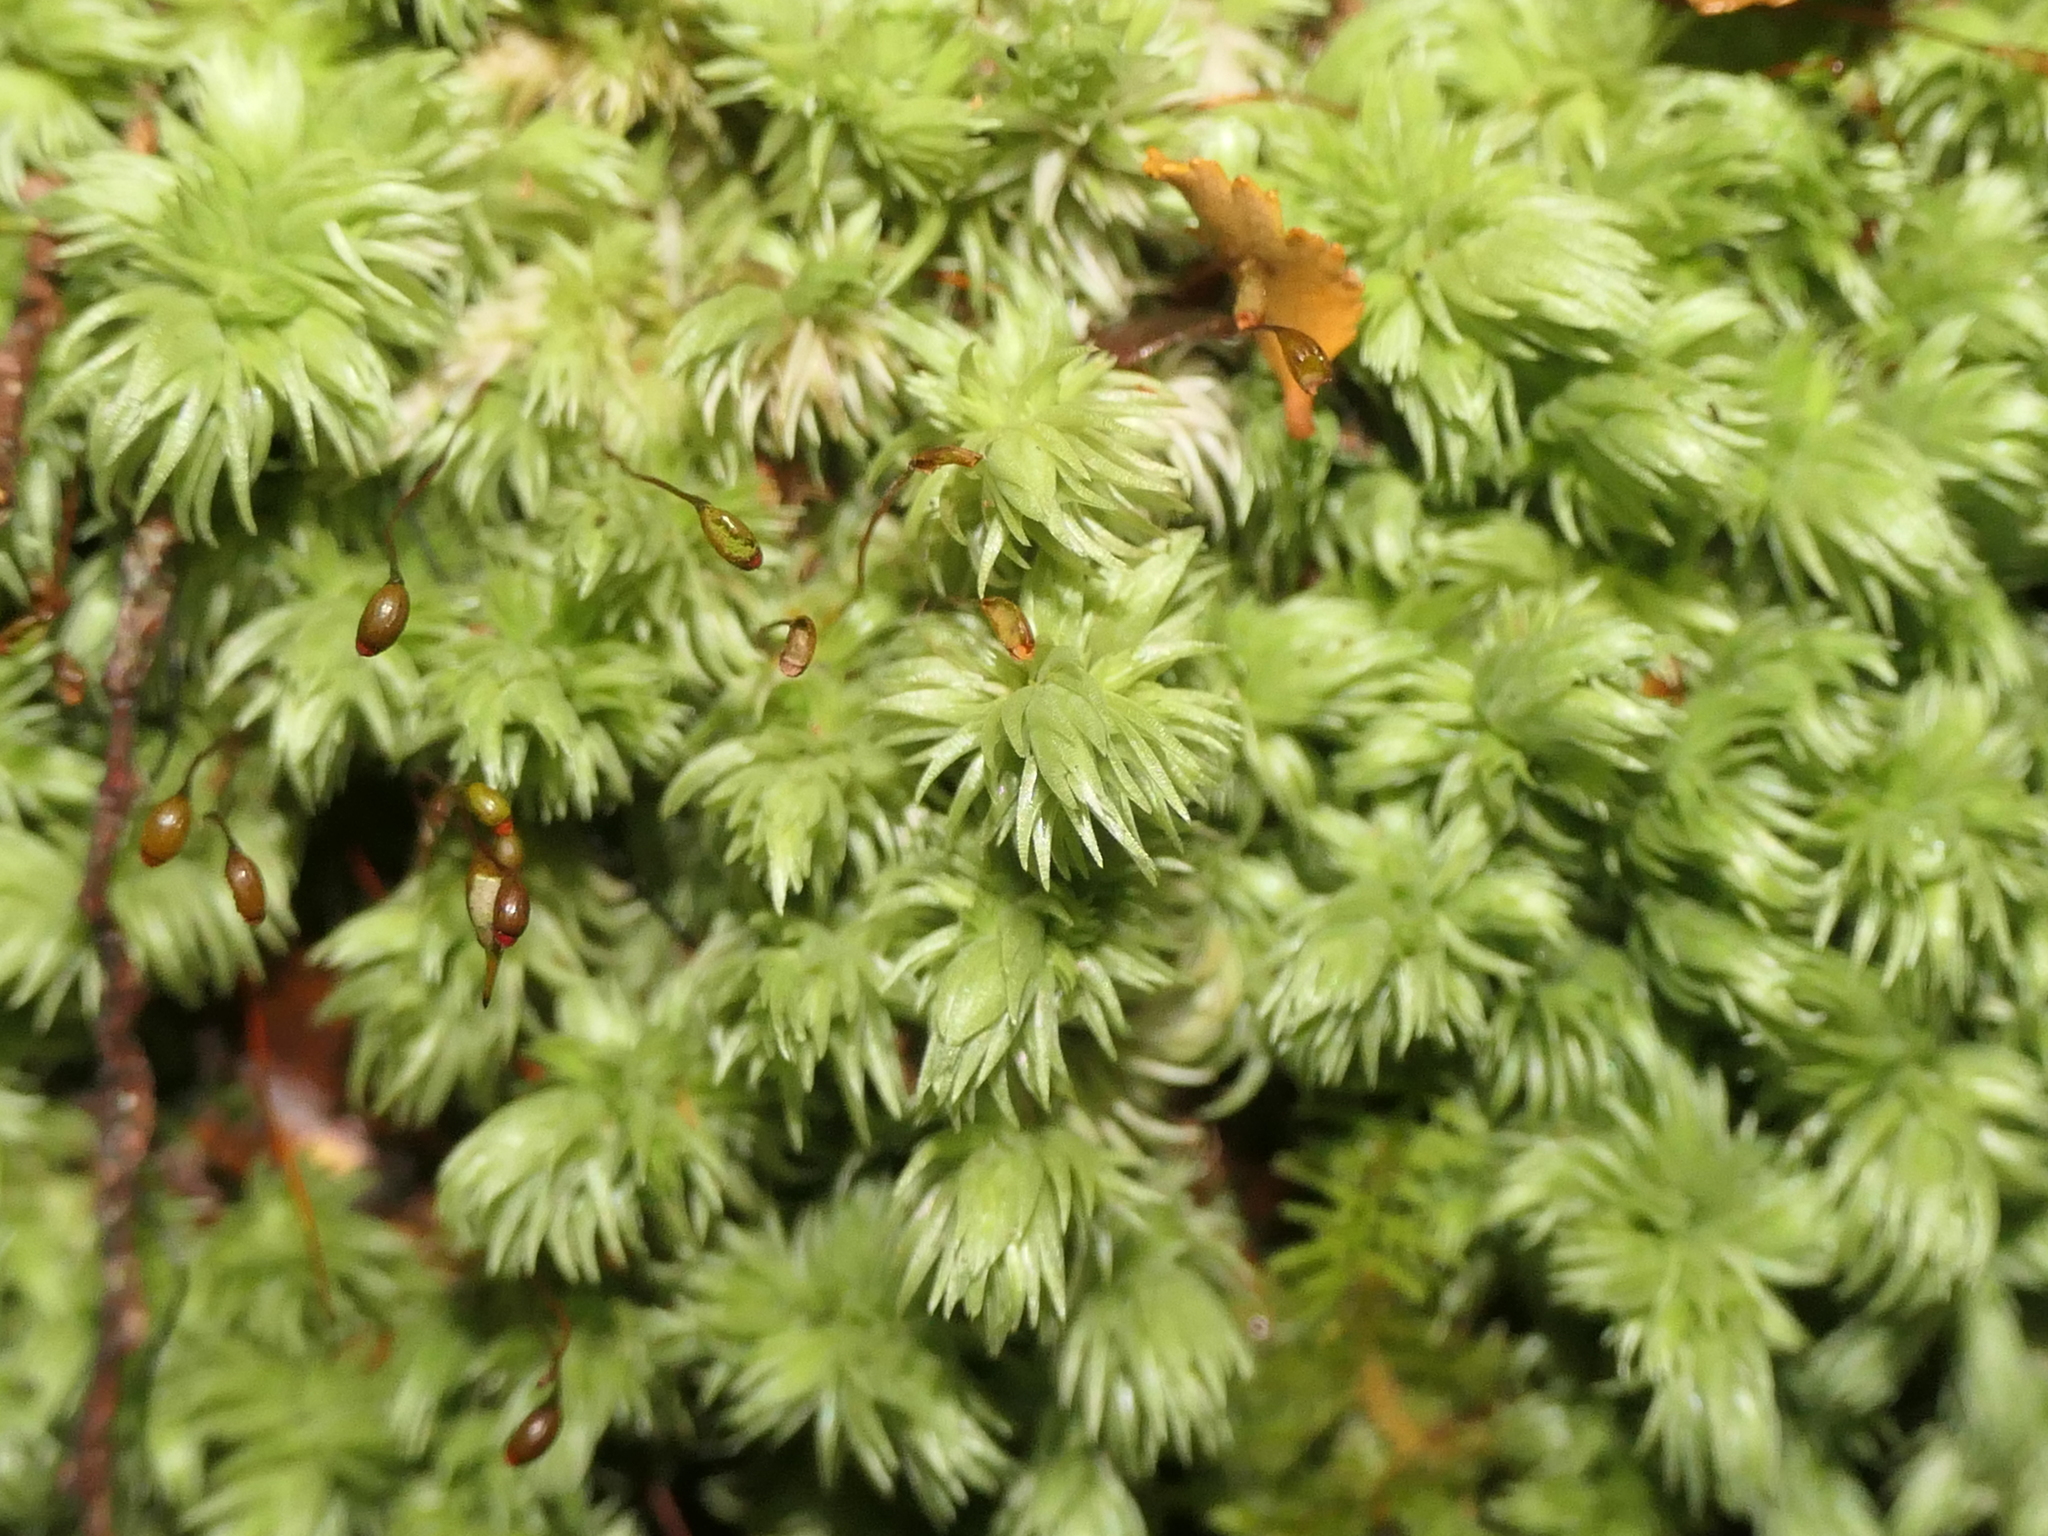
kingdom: Plantae
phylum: Bryophyta
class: Bryopsida
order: Dicranales
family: Leucobryaceae
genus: Leucobryum
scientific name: Leucobryum javense
